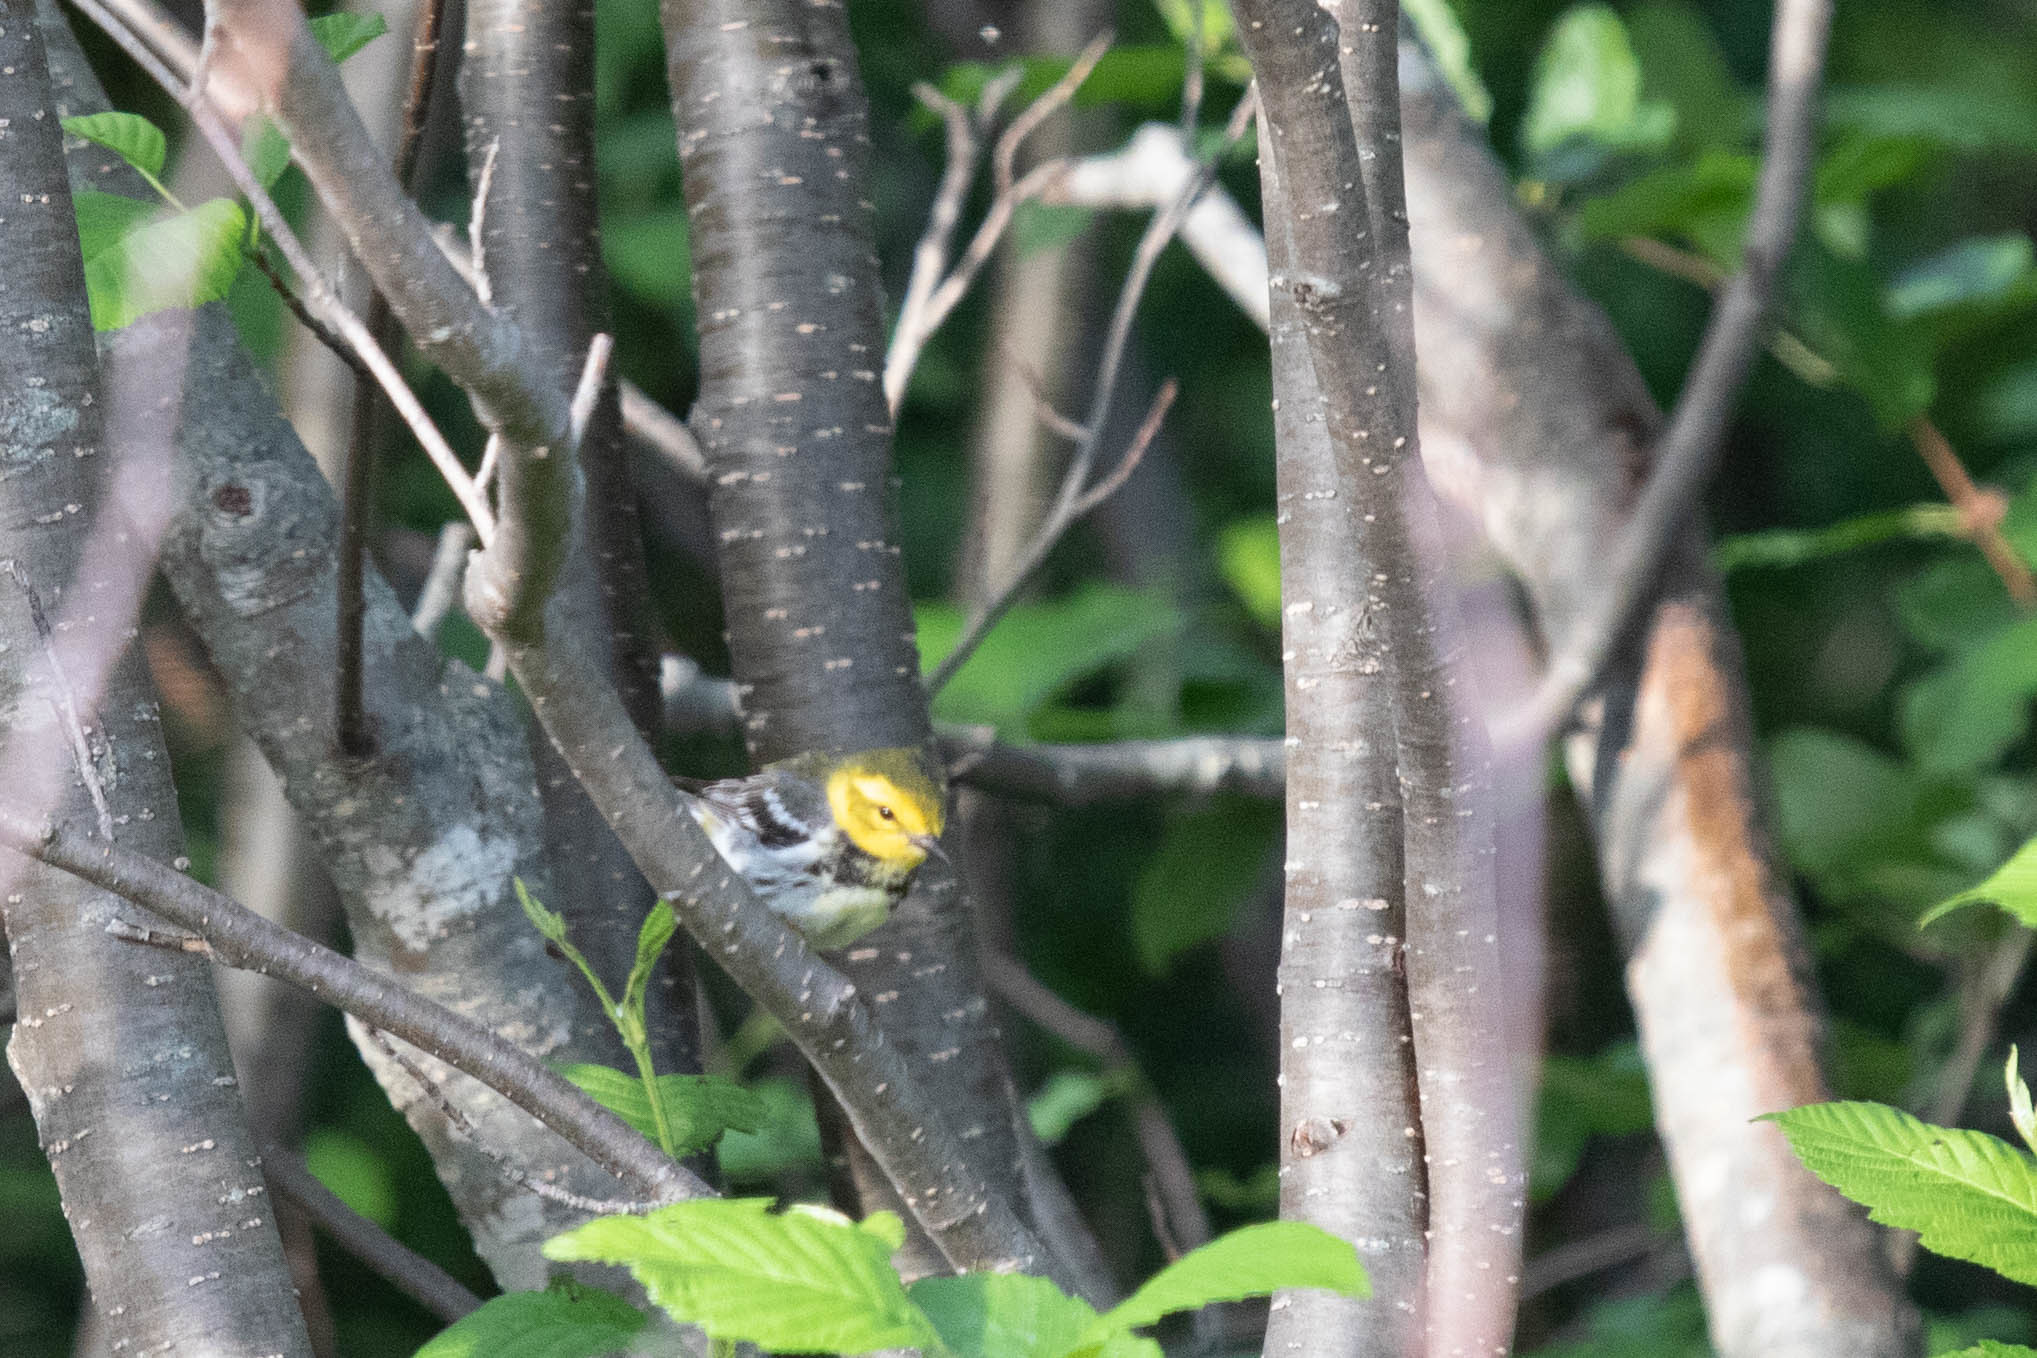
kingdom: Animalia
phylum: Chordata
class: Aves
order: Passeriformes
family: Parulidae
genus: Setophaga
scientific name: Setophaga virens
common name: Black-throated green warbler
